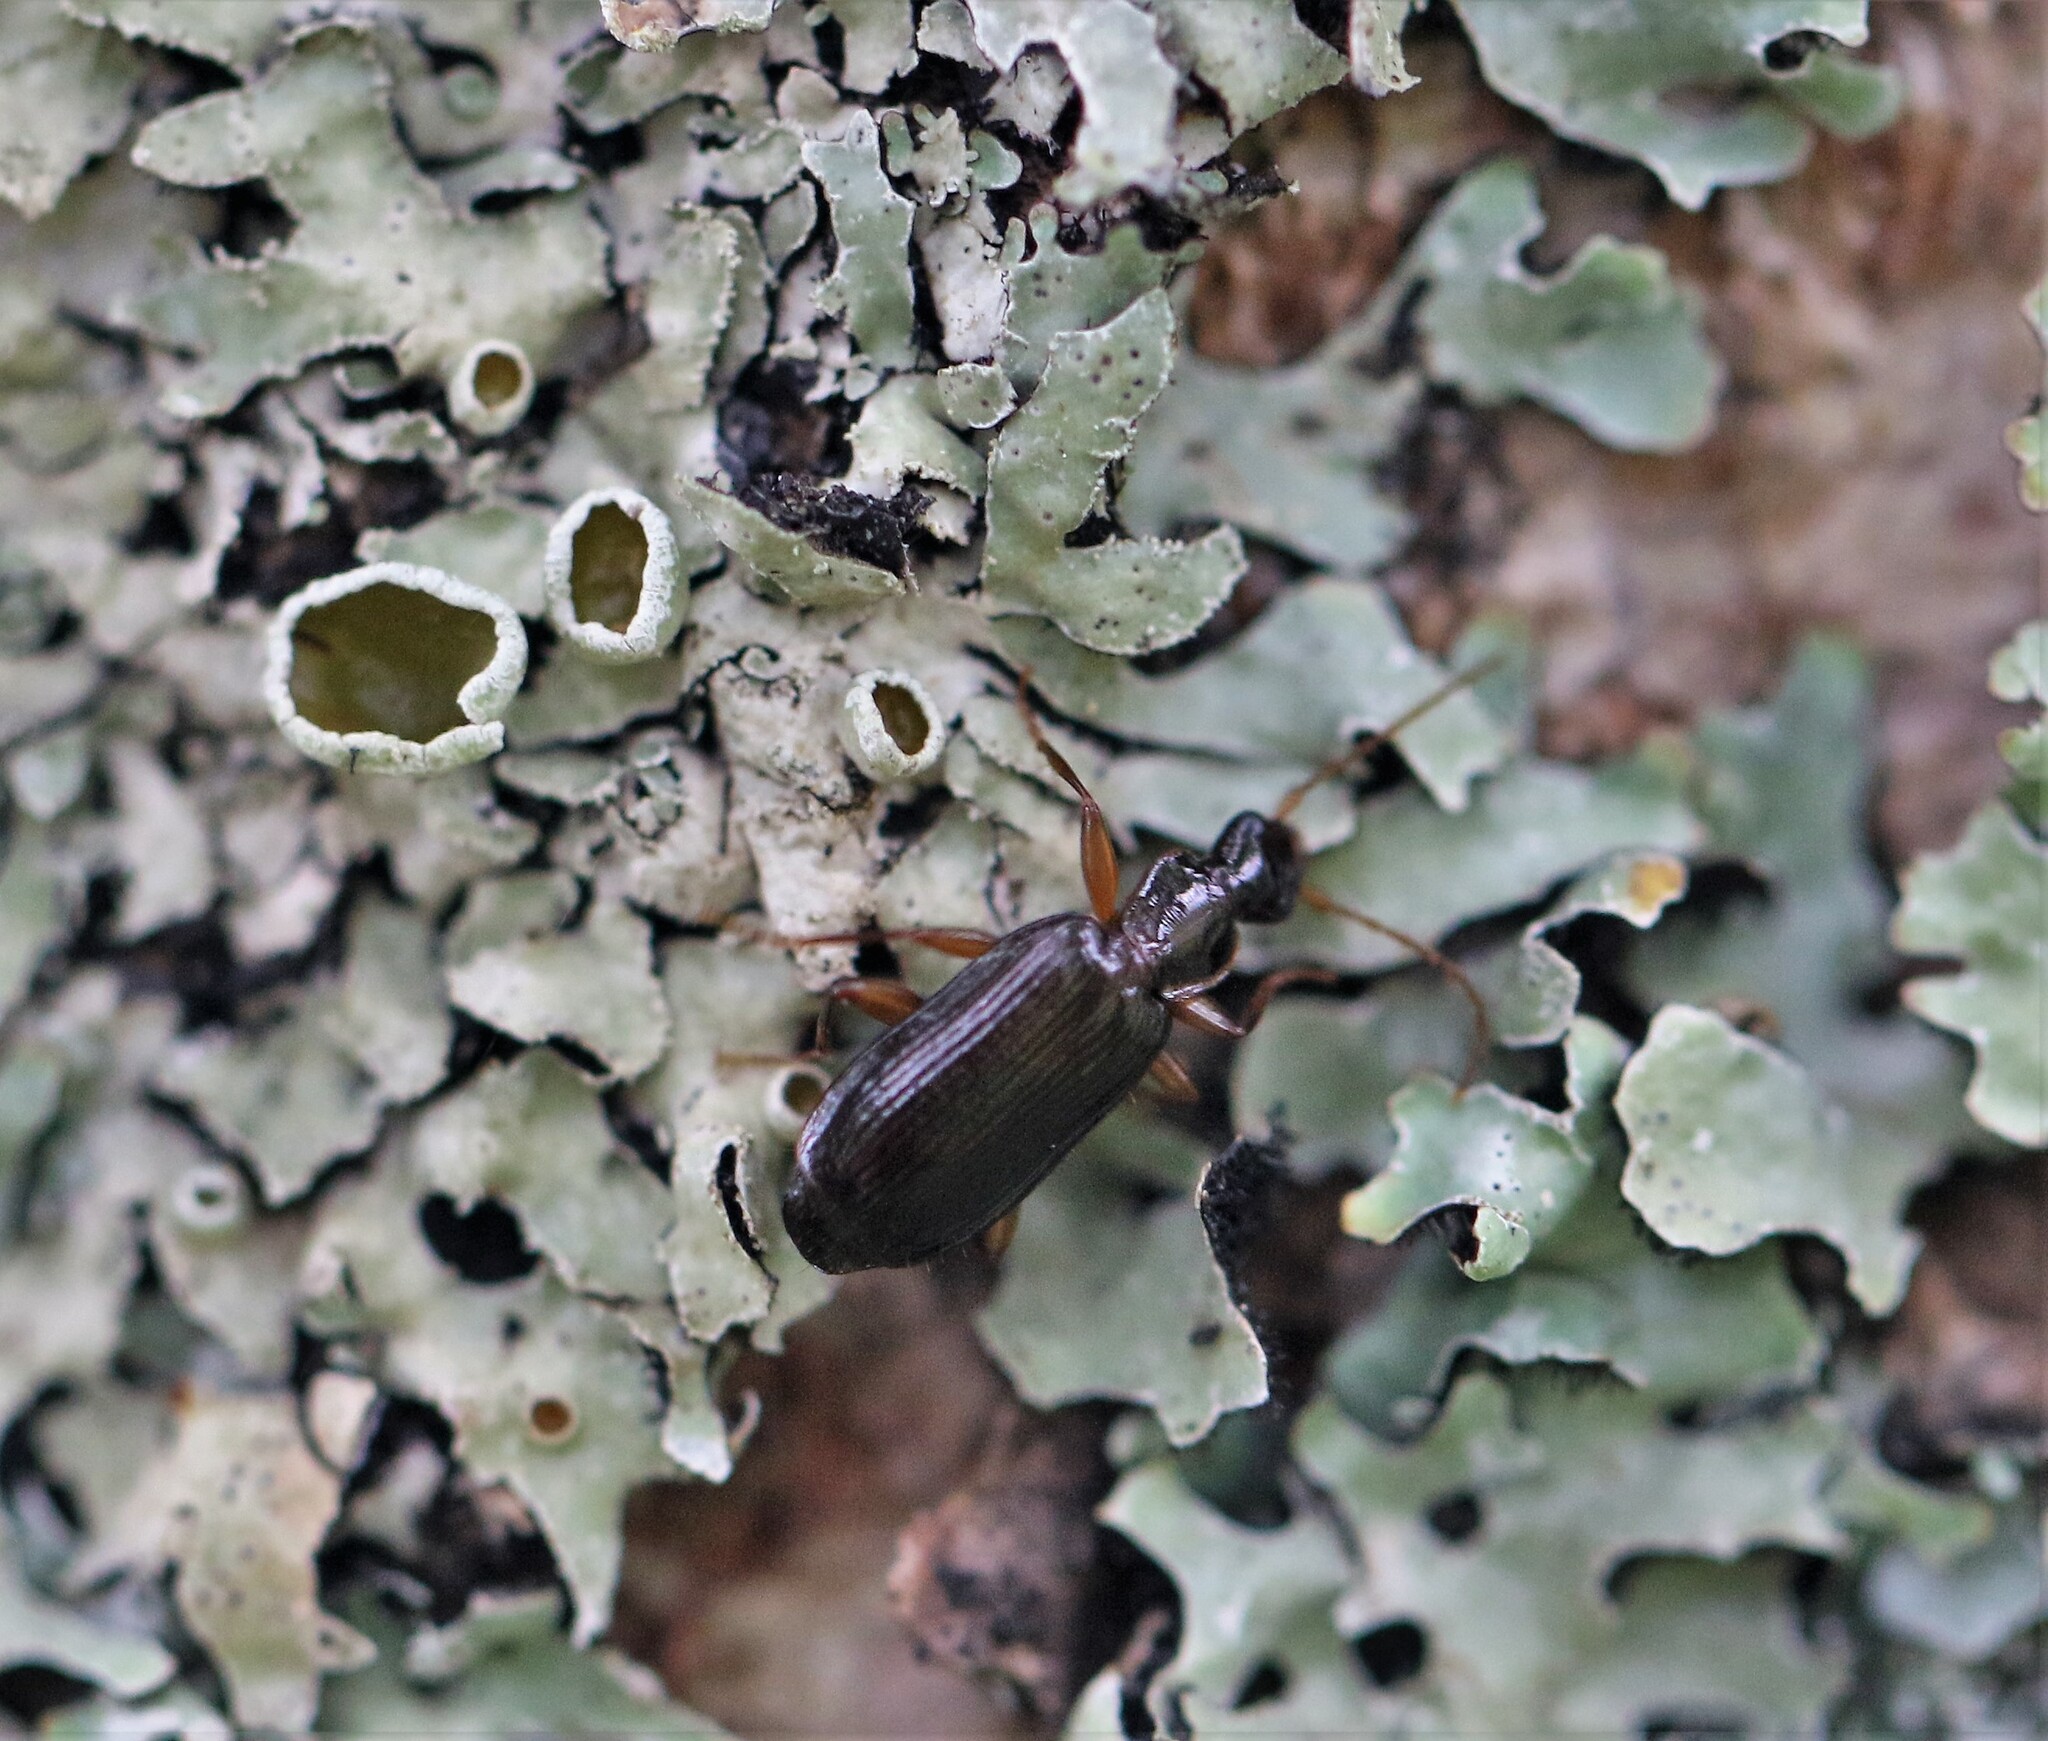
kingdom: Animalia
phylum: Arthropoda
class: Insecta
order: Coleoptera
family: Carabidae
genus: Dromius
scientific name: Dromius piceus
